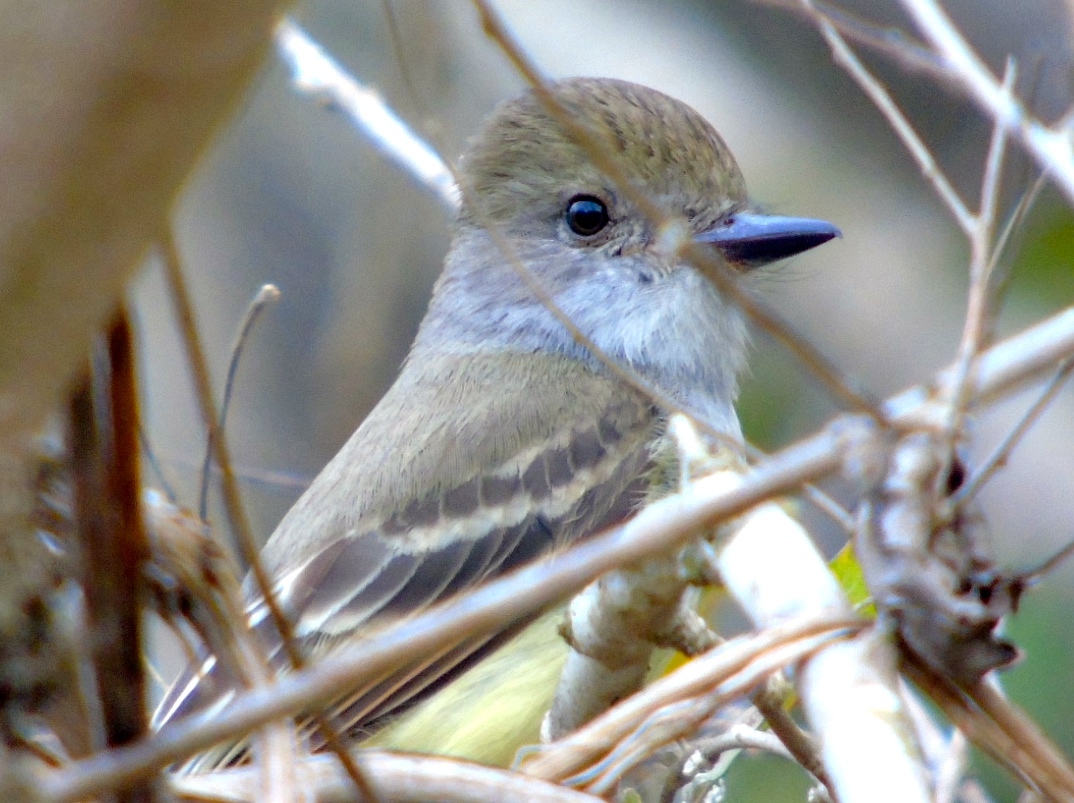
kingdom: Animalia
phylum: Chordata
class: Aves
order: Passeriformes
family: Tyrannidae
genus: Myiarchus
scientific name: Myiarchus
